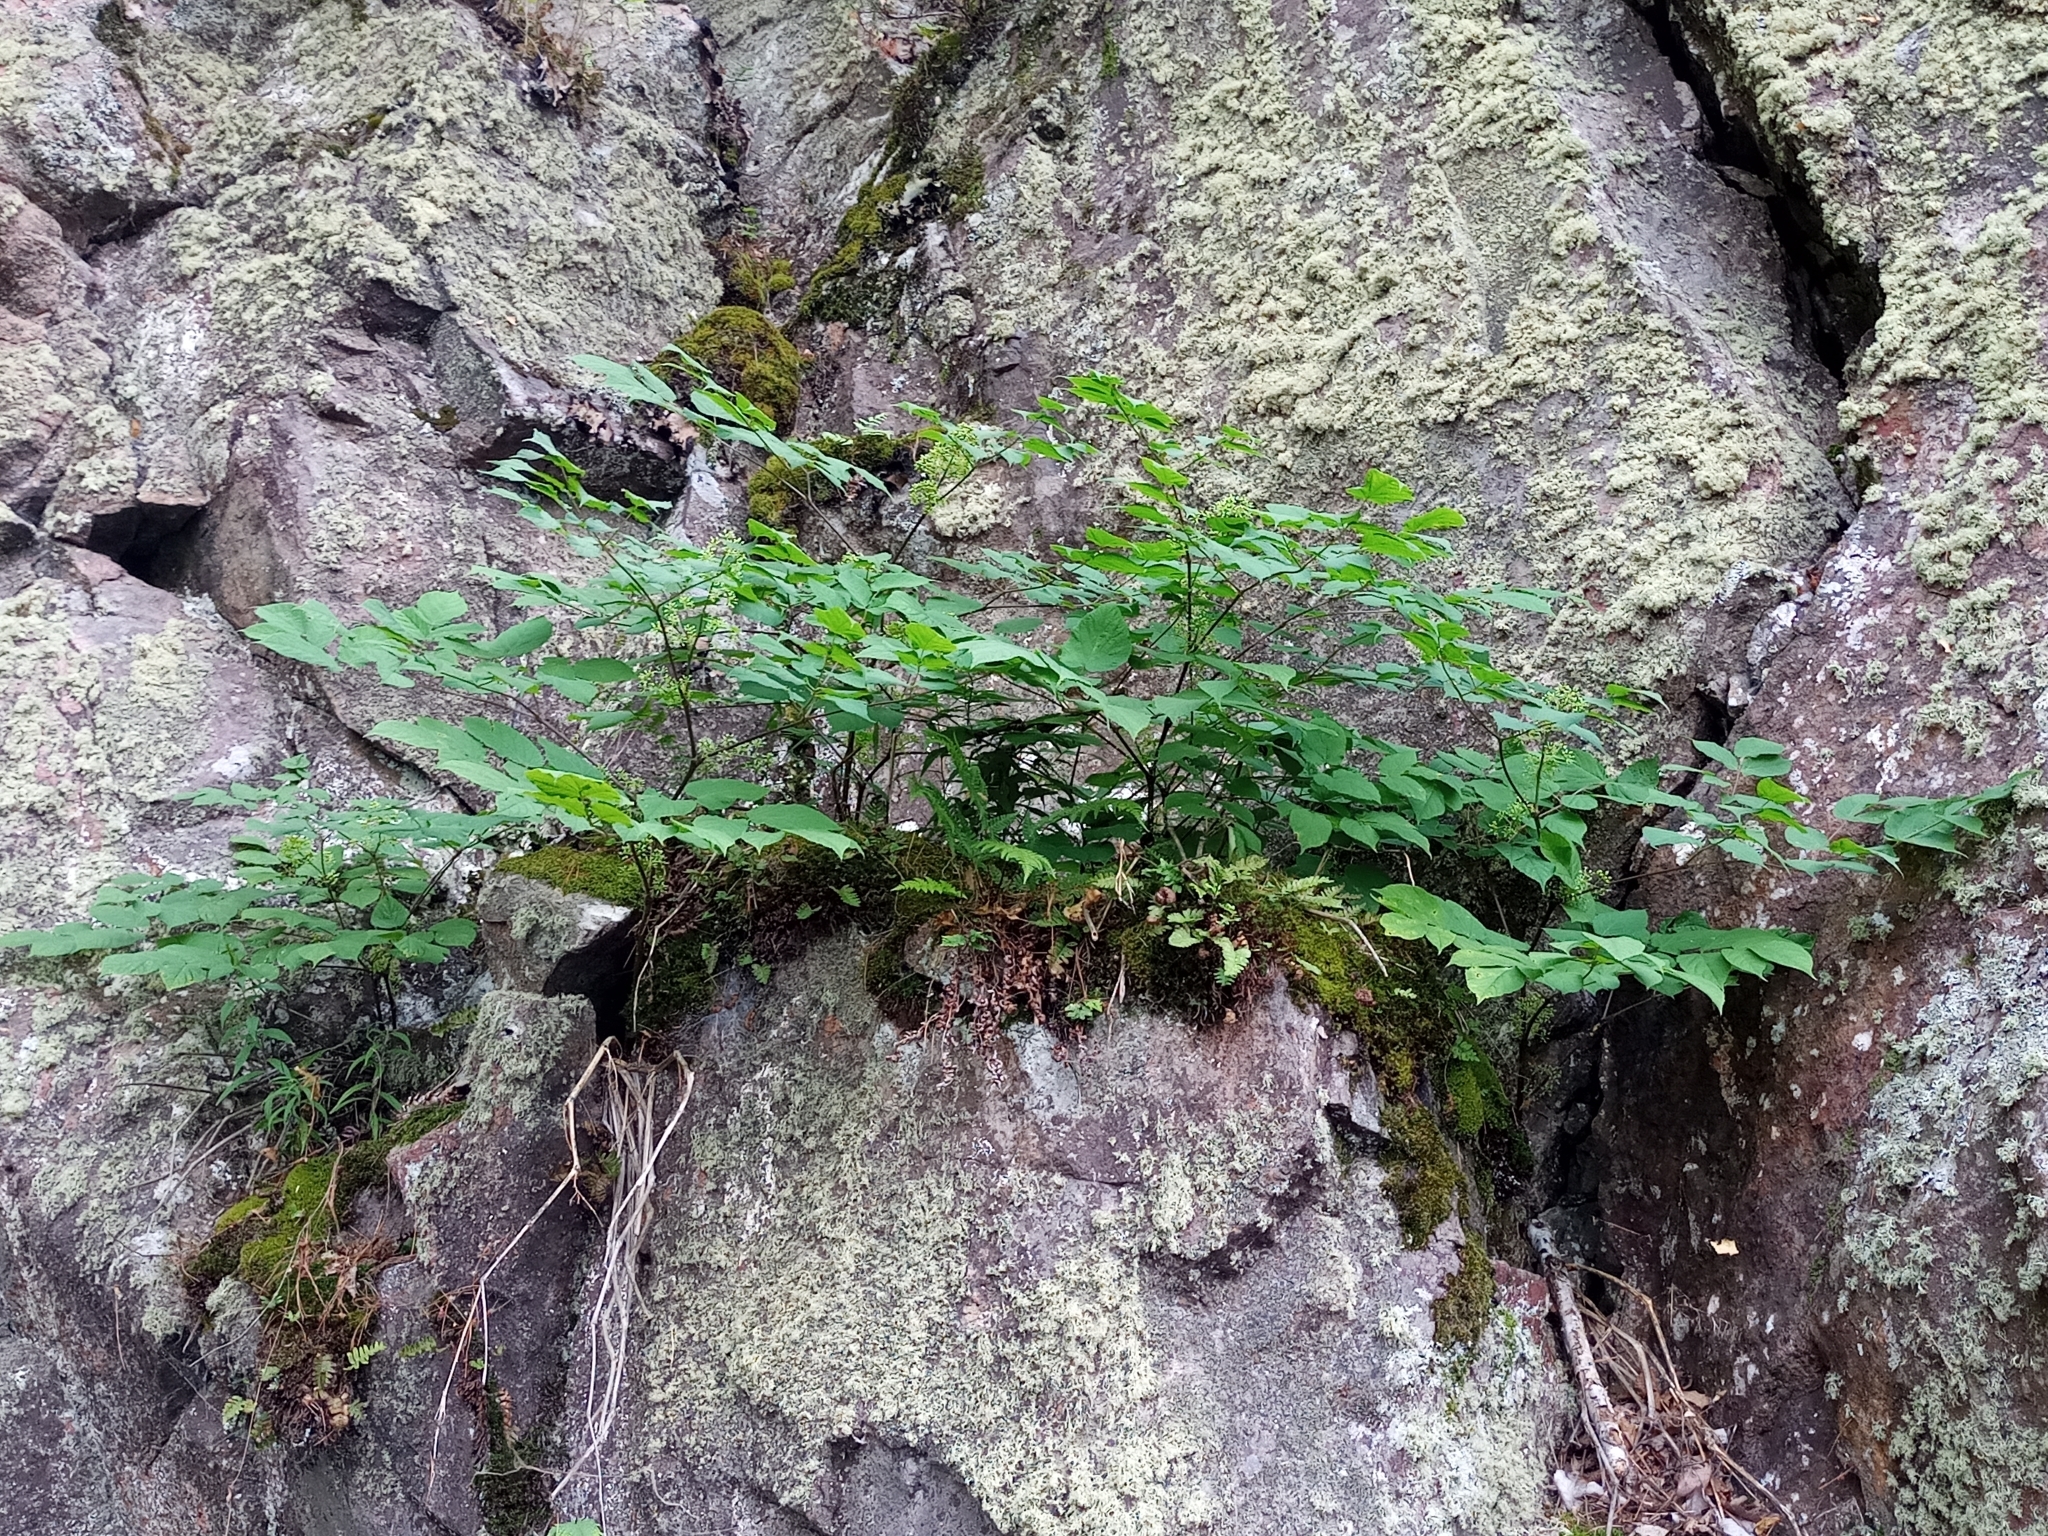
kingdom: Plantae
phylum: Tracheophyta
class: Magnoliopsida
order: Apiales
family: Araliaceae
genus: Aralia
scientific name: Aralia racemosa
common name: American-spikenard
